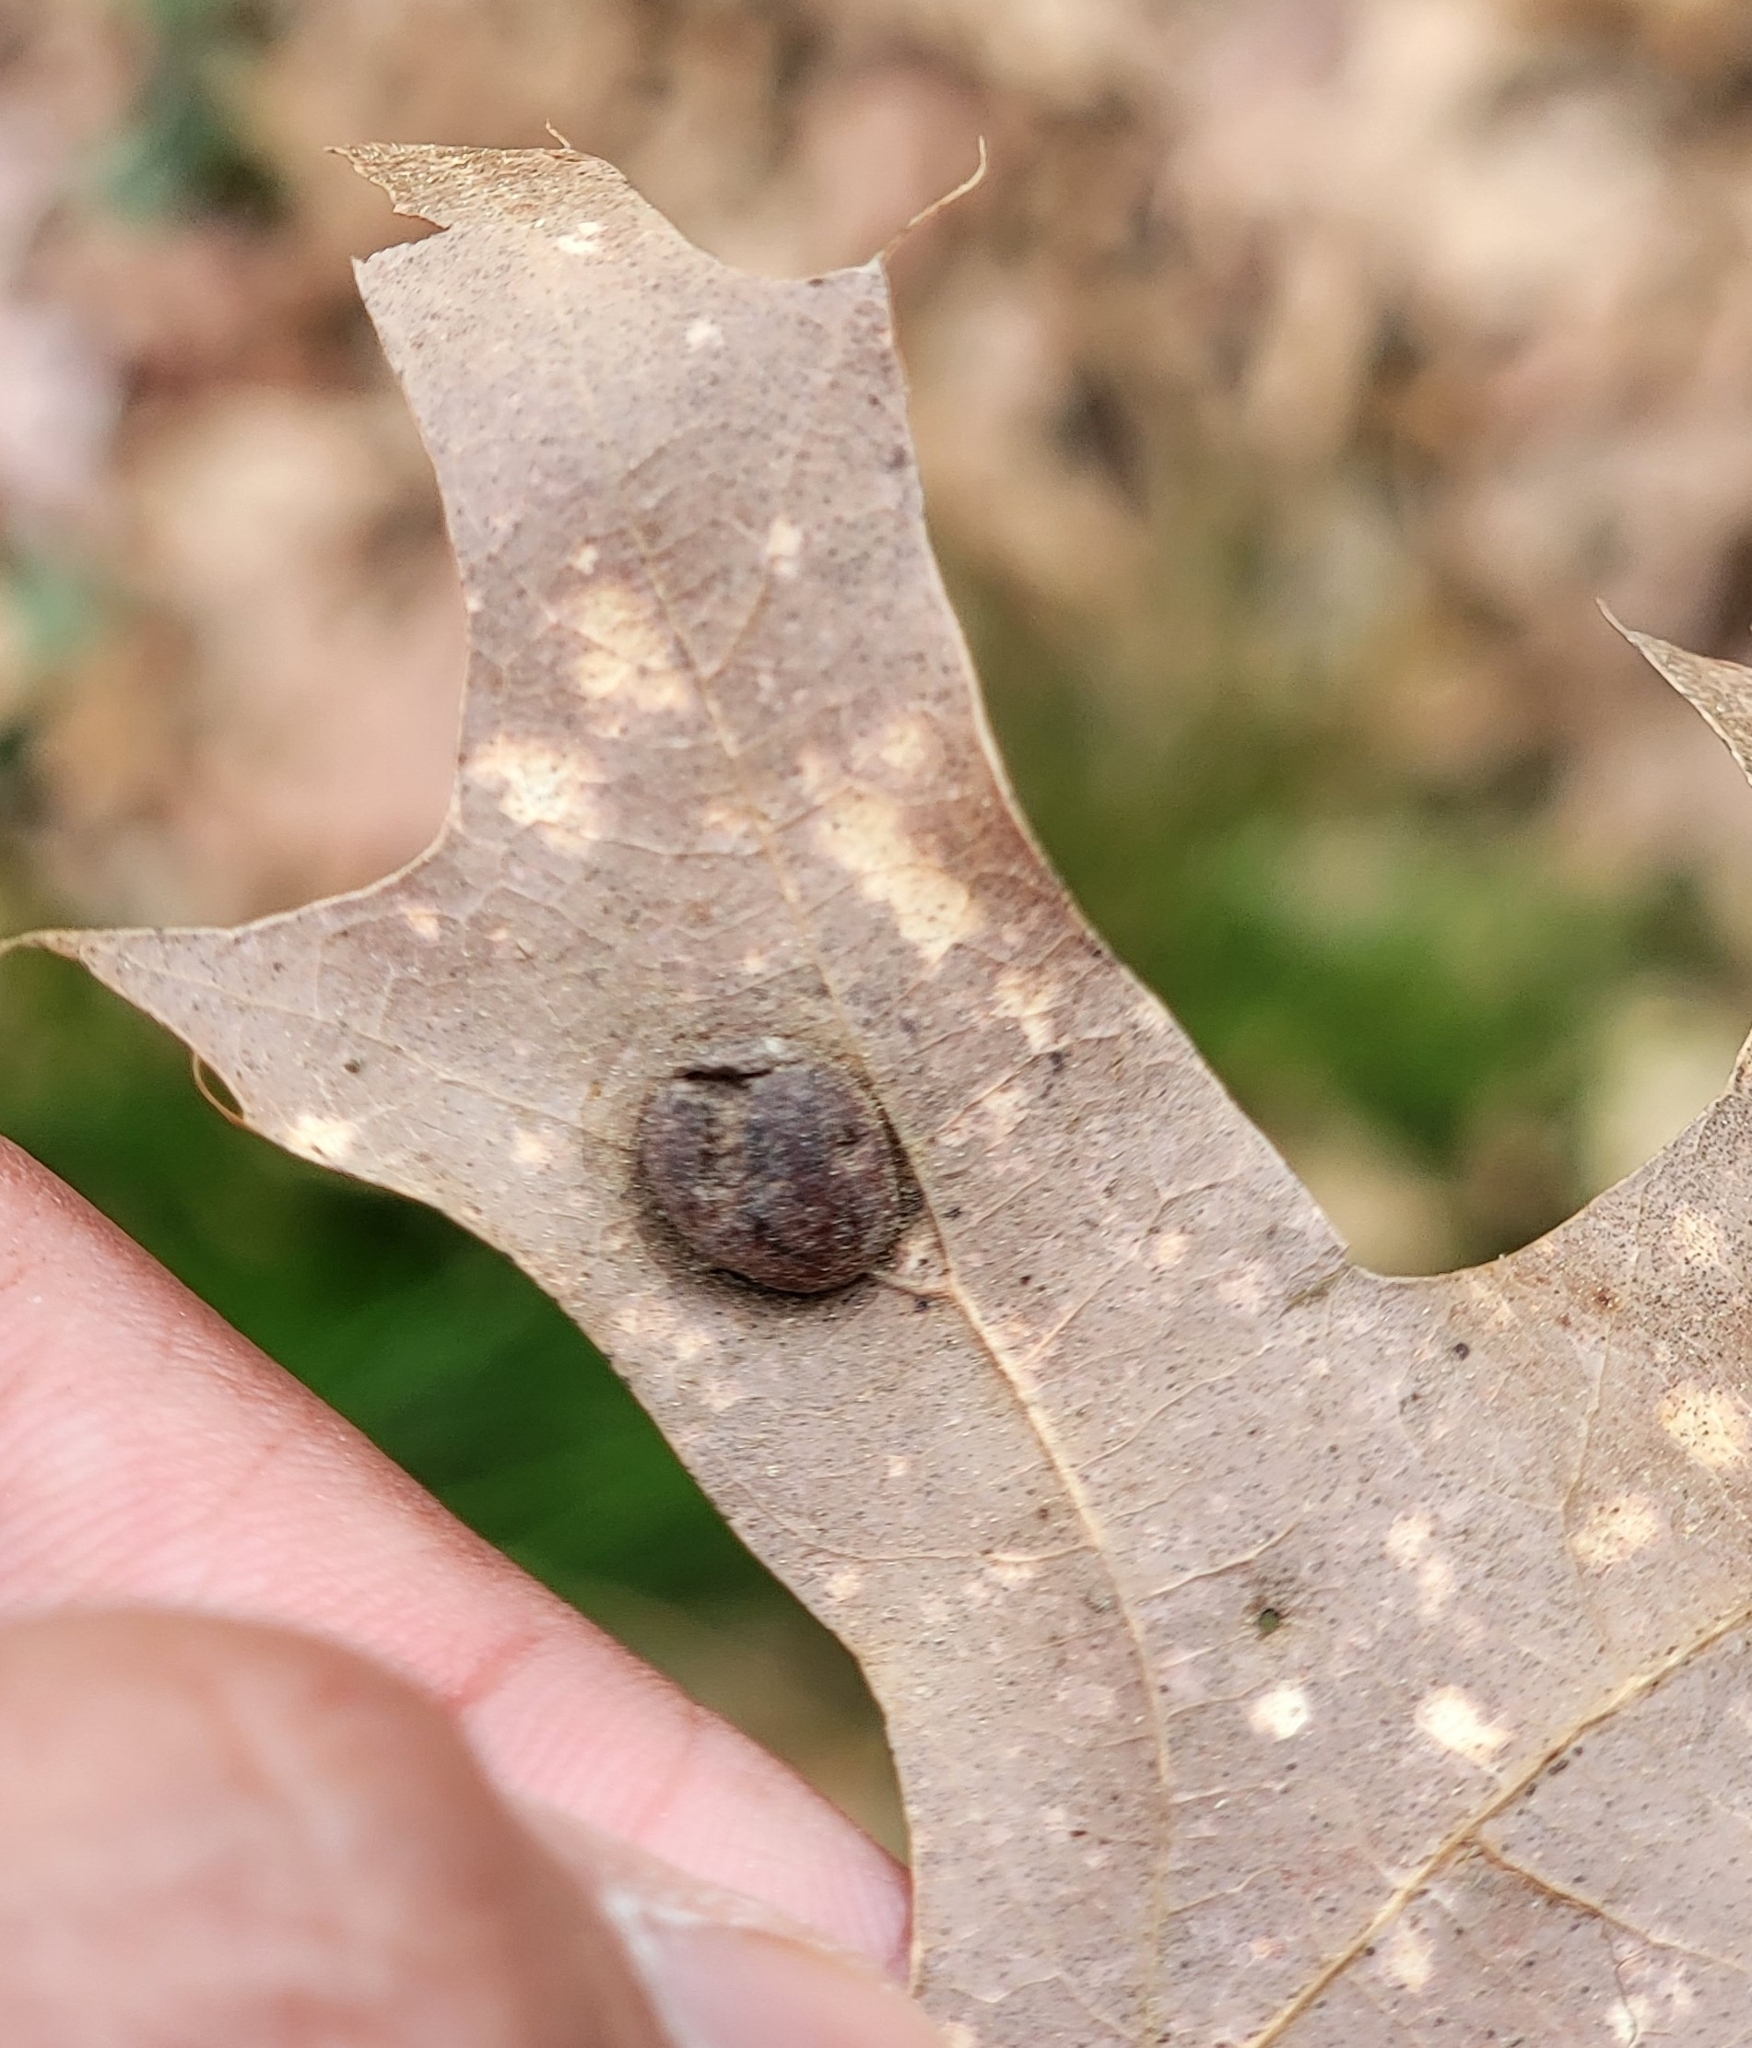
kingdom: Animalia
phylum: Arthropoda
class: Insecta
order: Diptera
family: Cecidomyiidae
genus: Polystepha
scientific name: Polystepha pilulae
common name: Oak leaf gall midge
